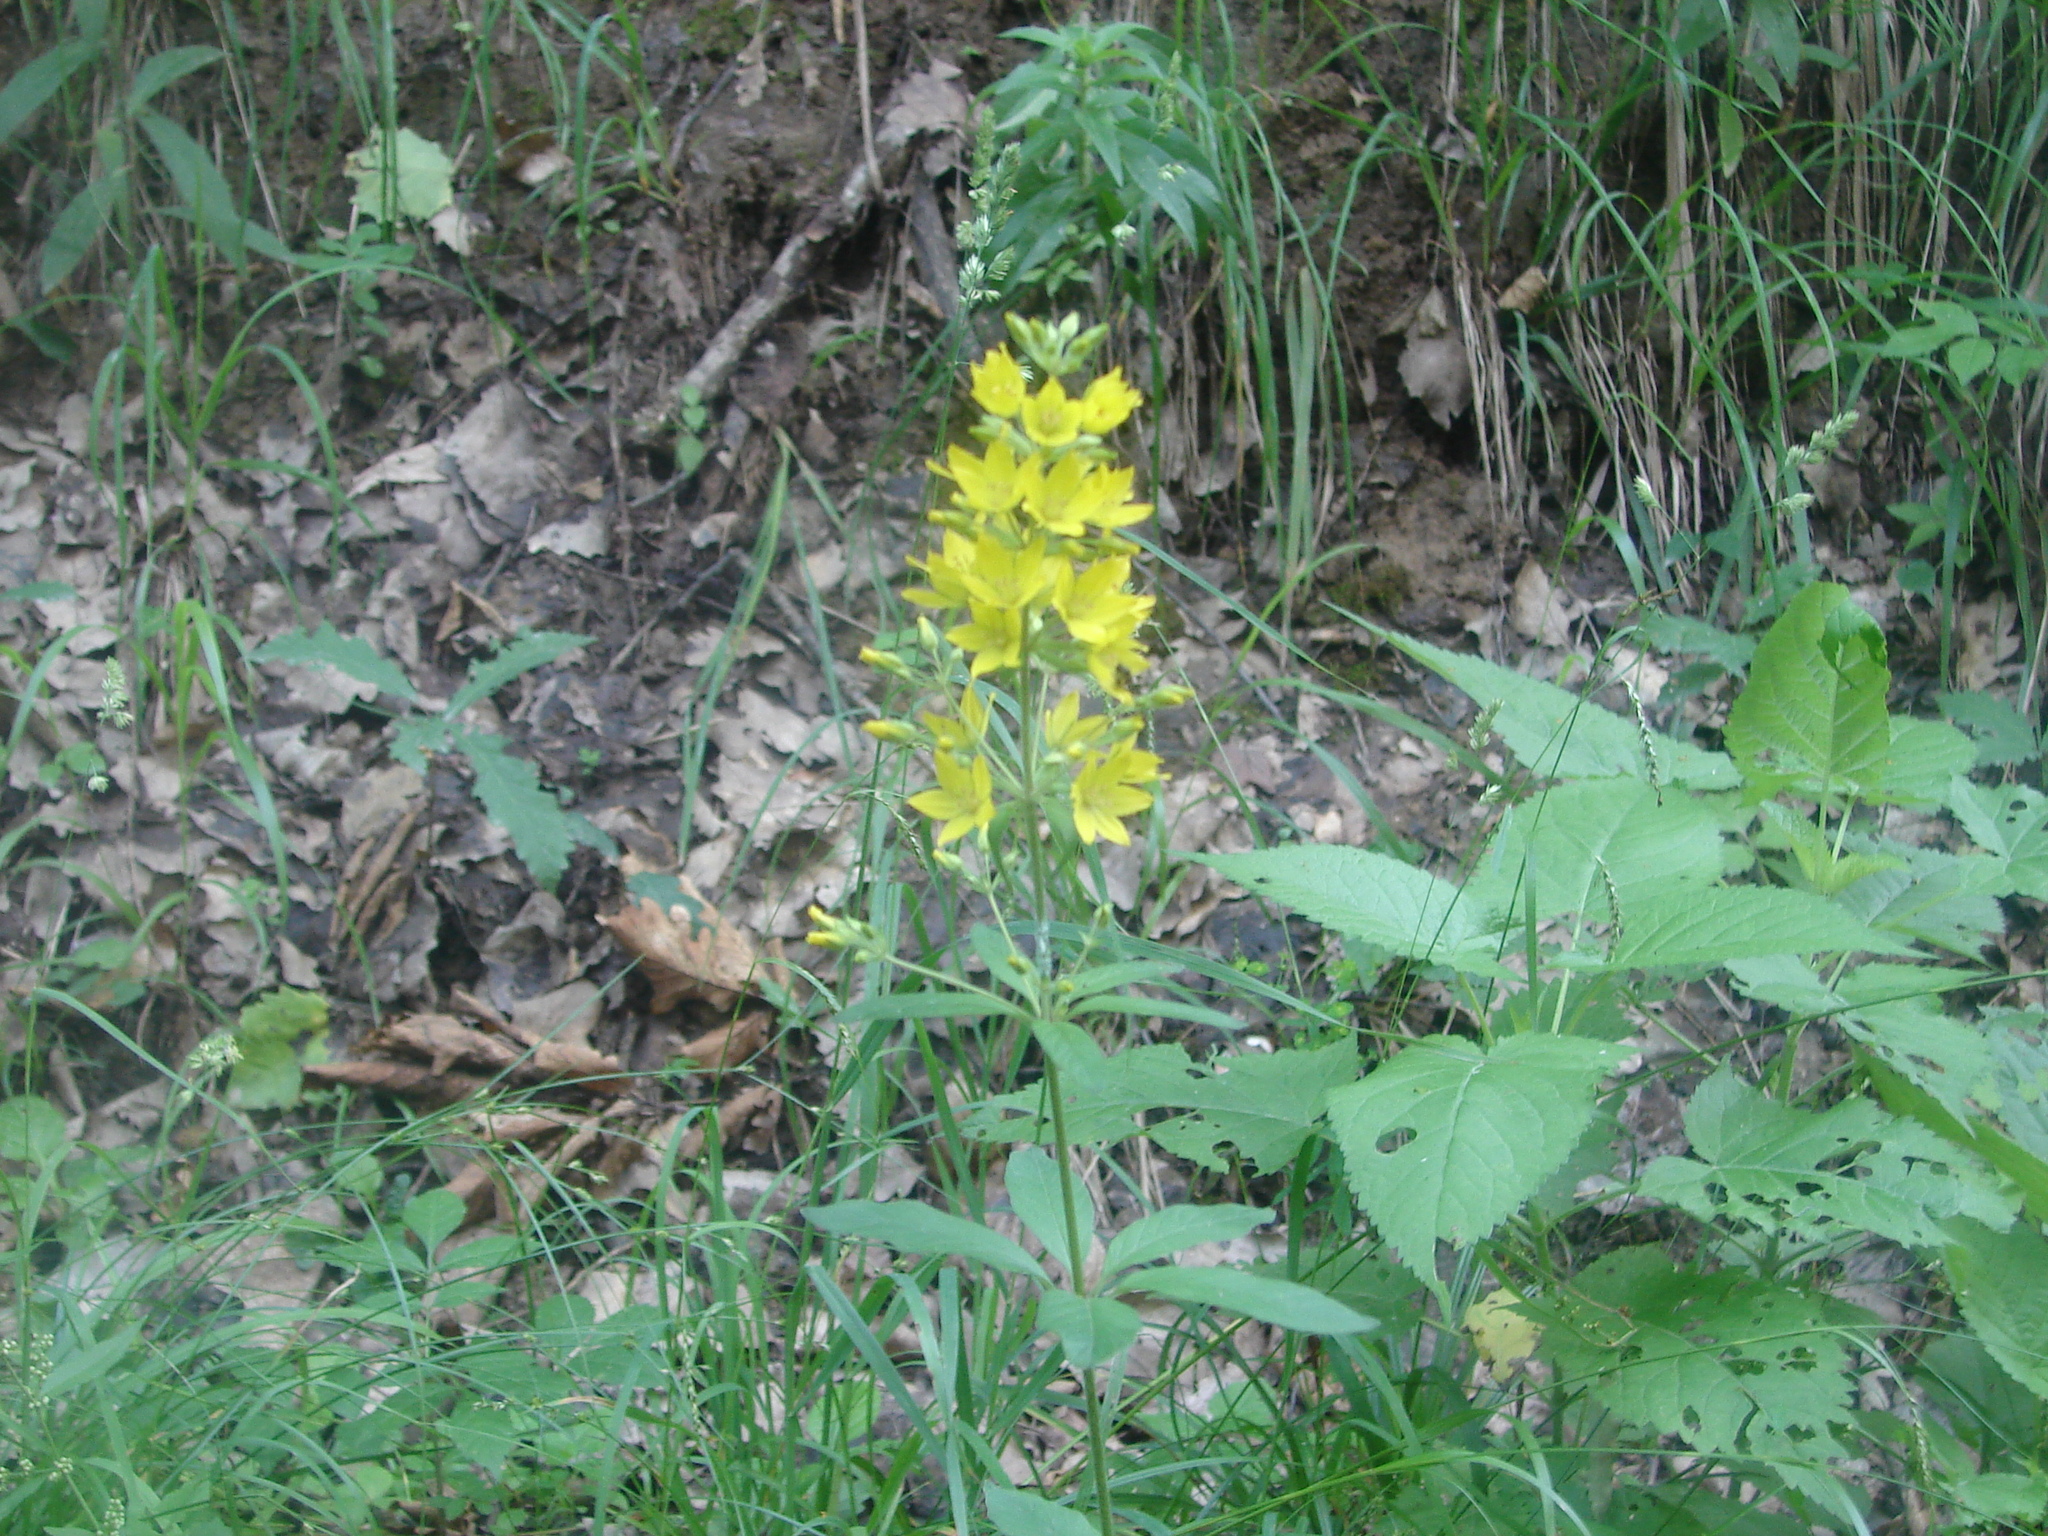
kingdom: Plantae
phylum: Tracheophyta
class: Magnoliopsida
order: Ericales
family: Primulaceae
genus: Lysimachia
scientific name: Lysimachia verticillaris
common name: Yellow loosestrife
